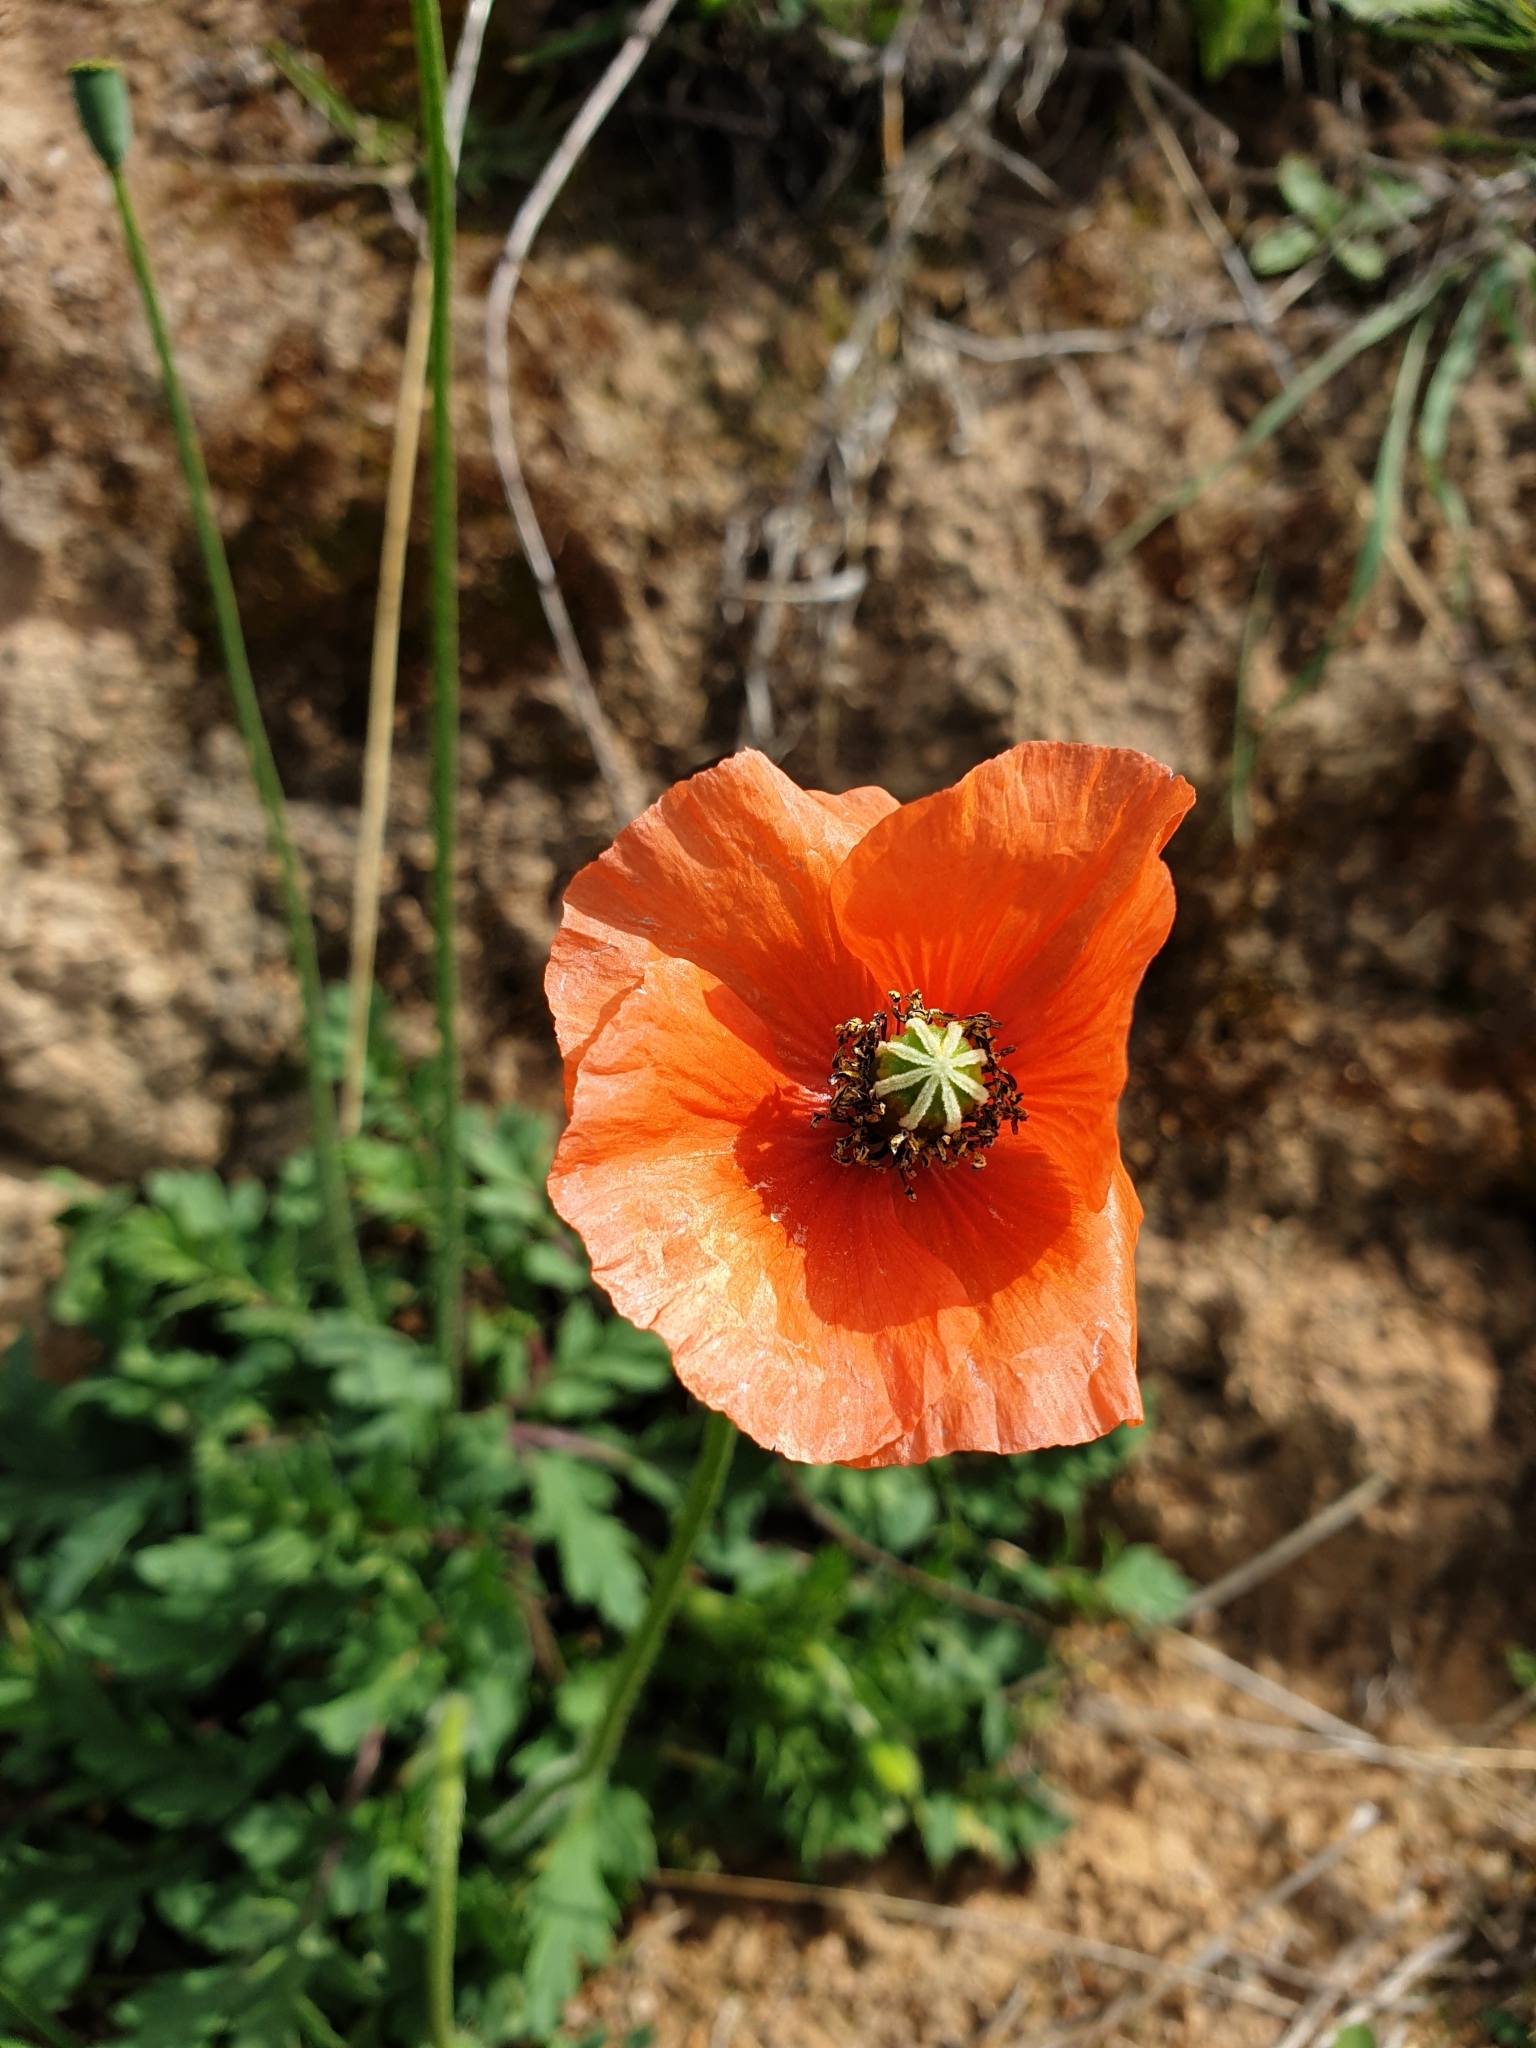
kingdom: Plantae
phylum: Tracheophyta
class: Magnoliopsida
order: Ranunculales
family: Papaveraceae
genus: Papaver
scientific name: Papaver dubium
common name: Long-headed poppy
